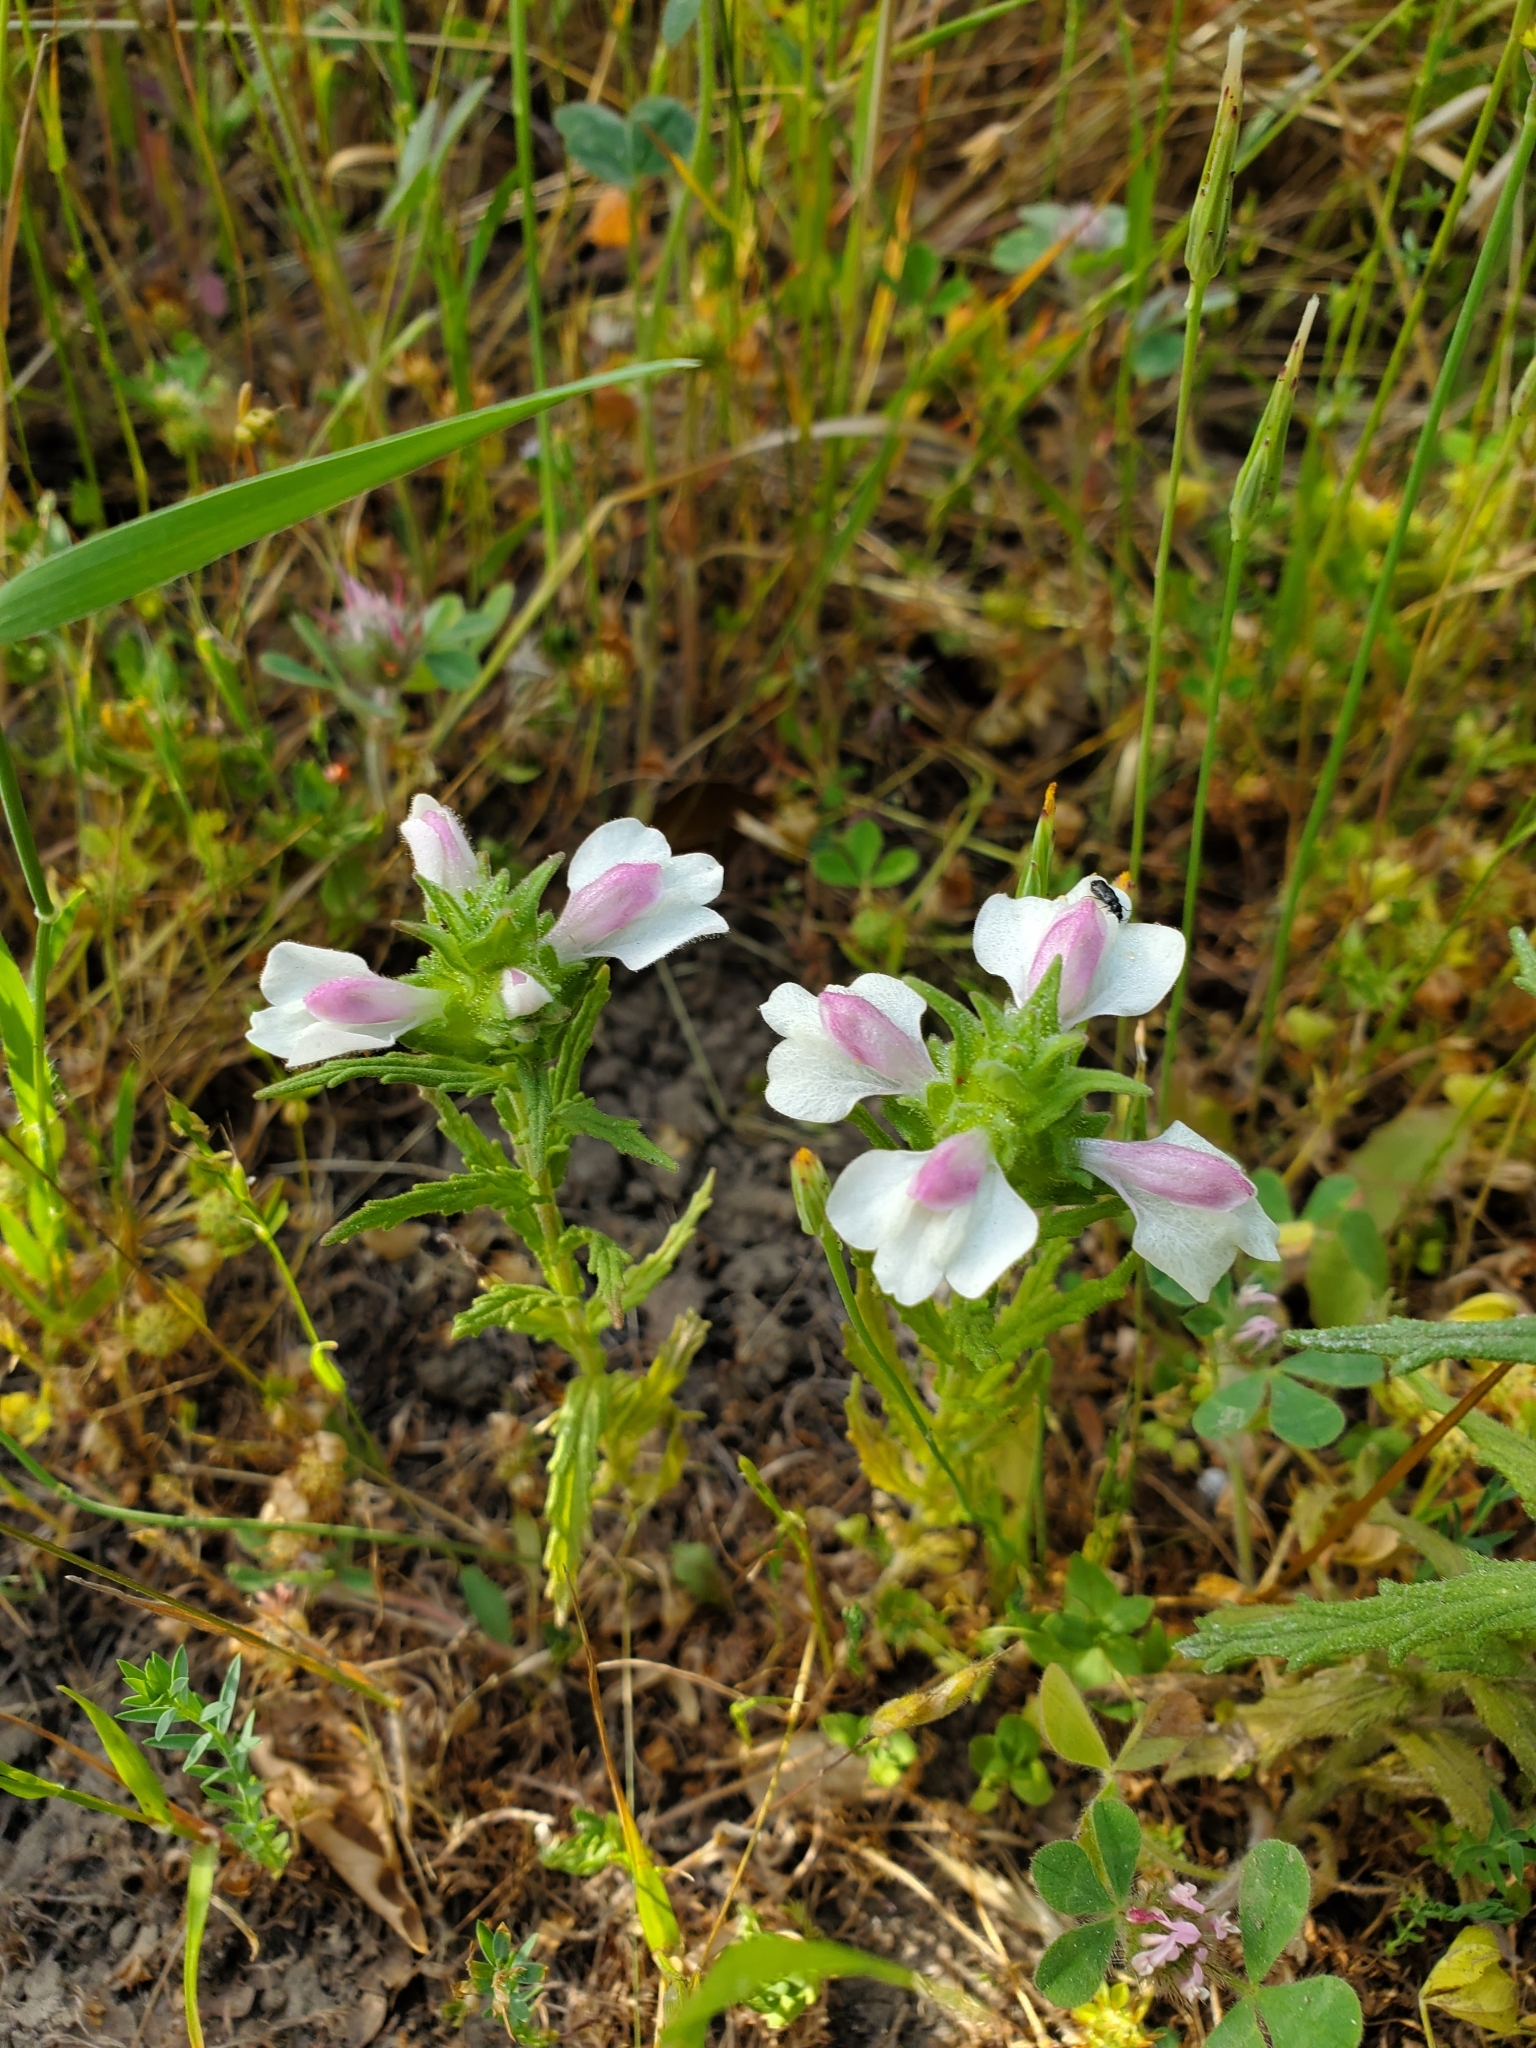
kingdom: Plantae
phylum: Tracheophyta
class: Magnoliopsida
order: Lamiales
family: Orobanchaceae
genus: Bellardia
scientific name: Bellardia trixago
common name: Mediterranean lineseed
